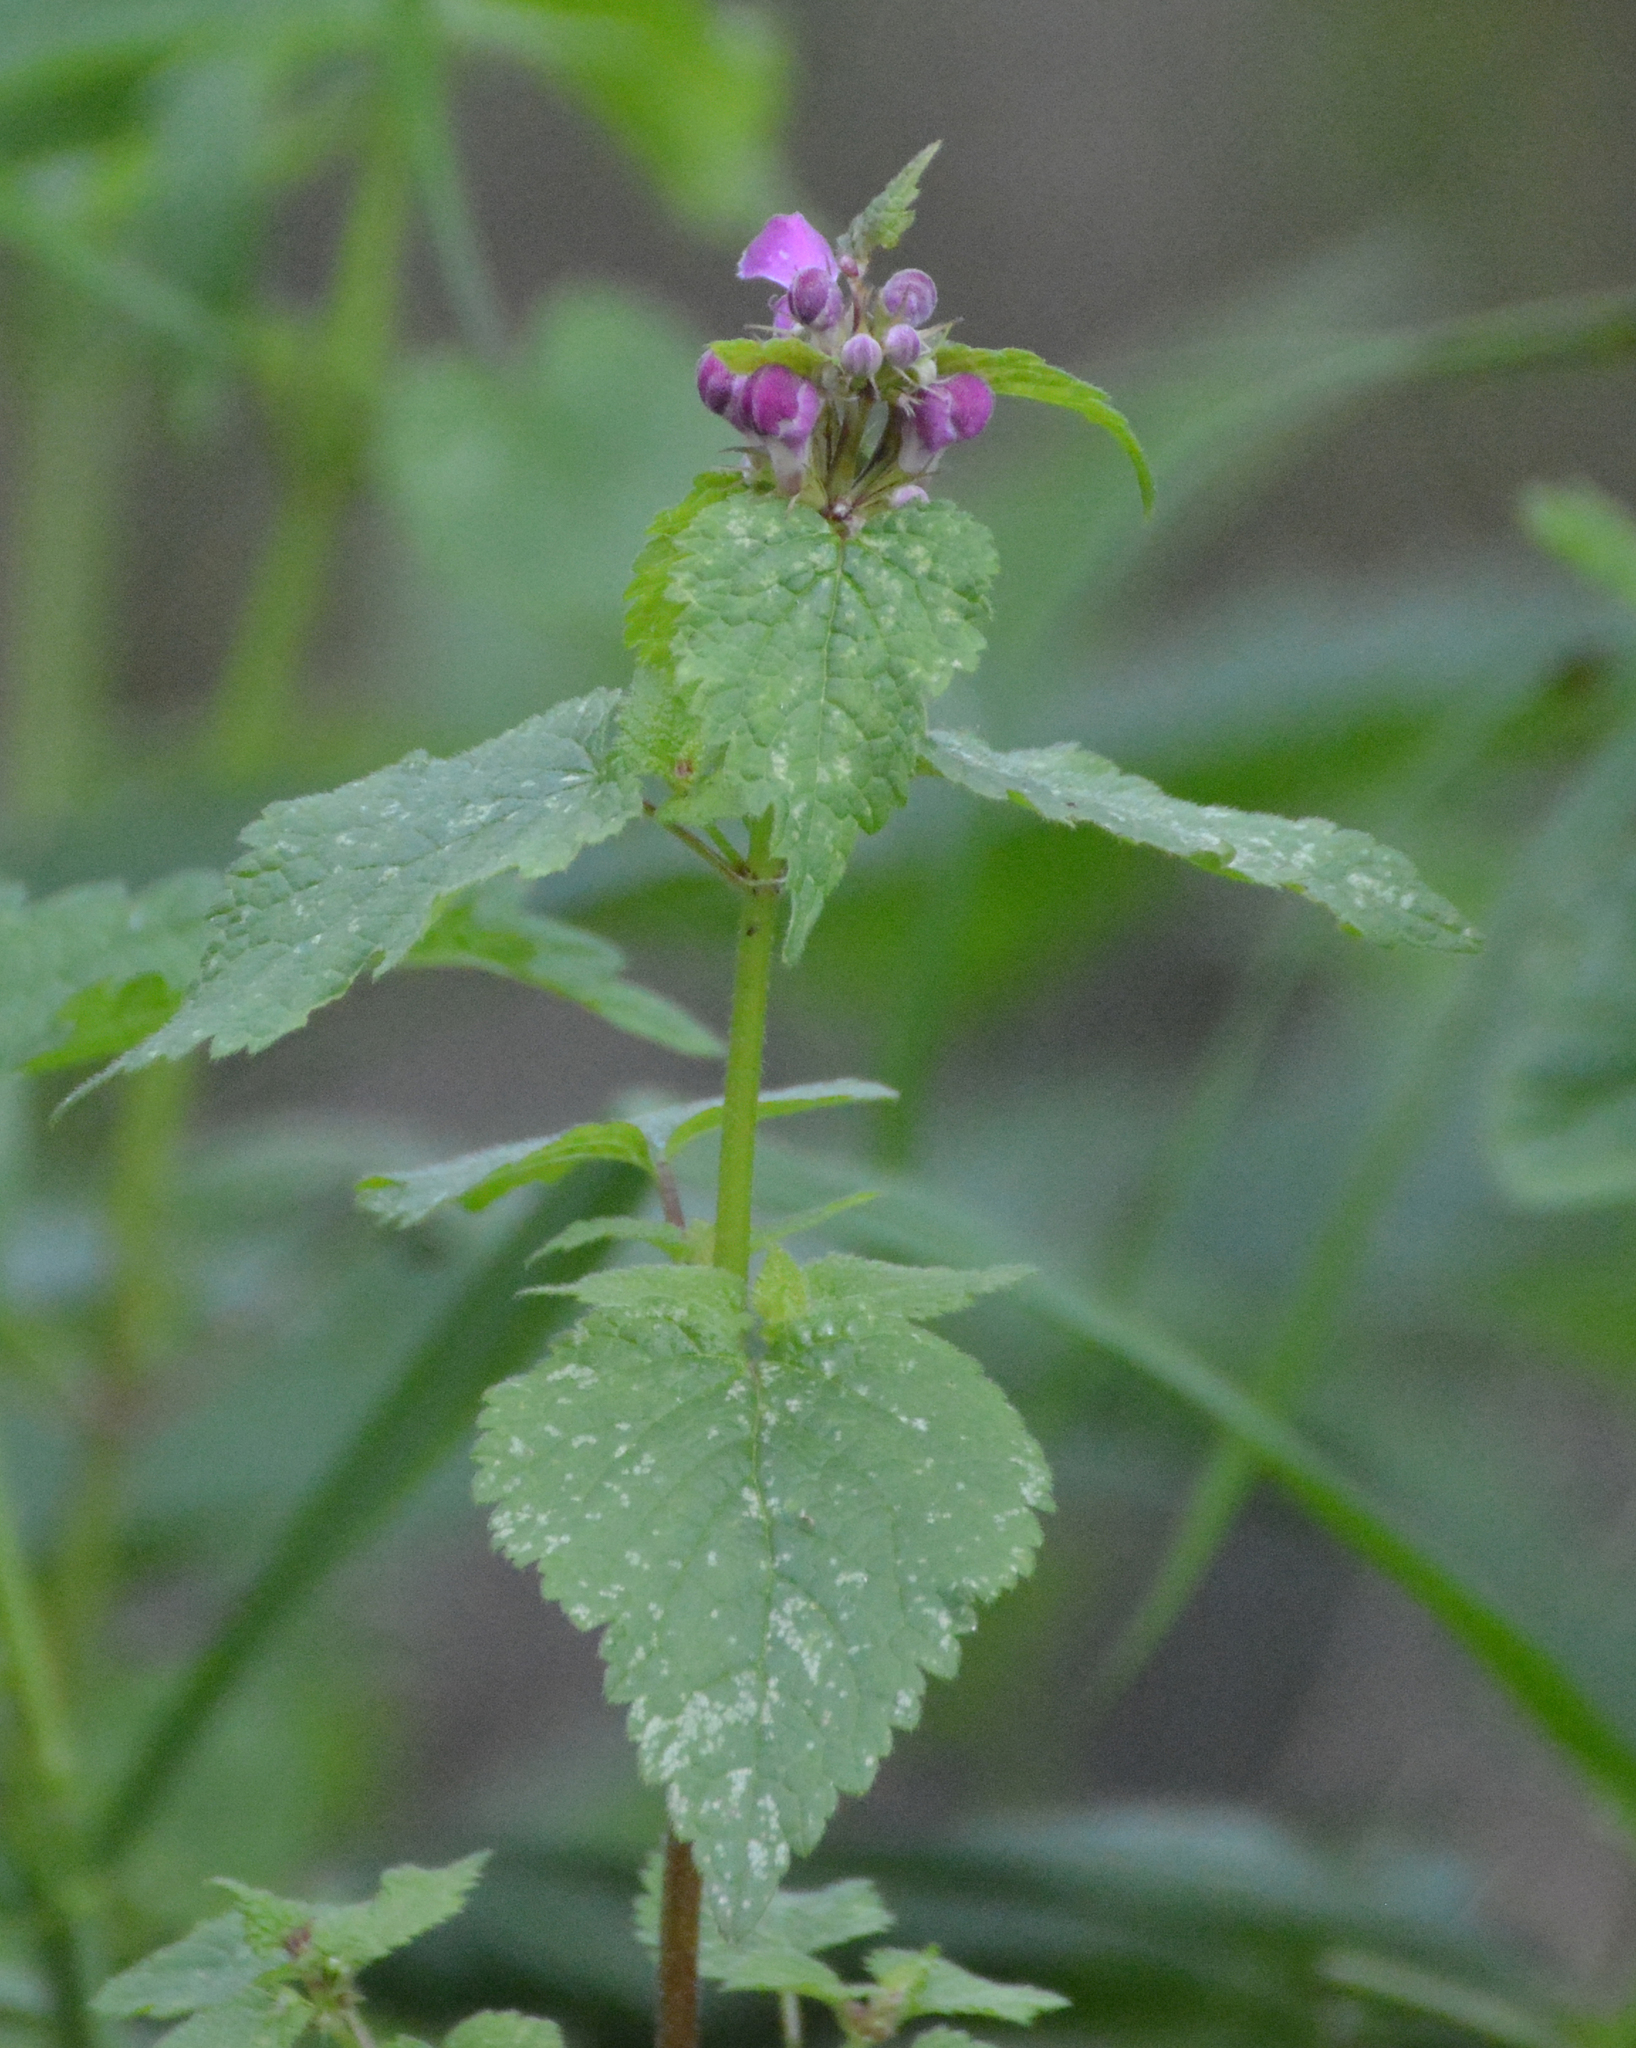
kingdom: Plantae
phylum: Tracheophyta
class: Magnoliopsida
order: Lamiales
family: Lamiaceae
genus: Lamium
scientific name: Lamium maculatum
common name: Spotted dead-nettle
